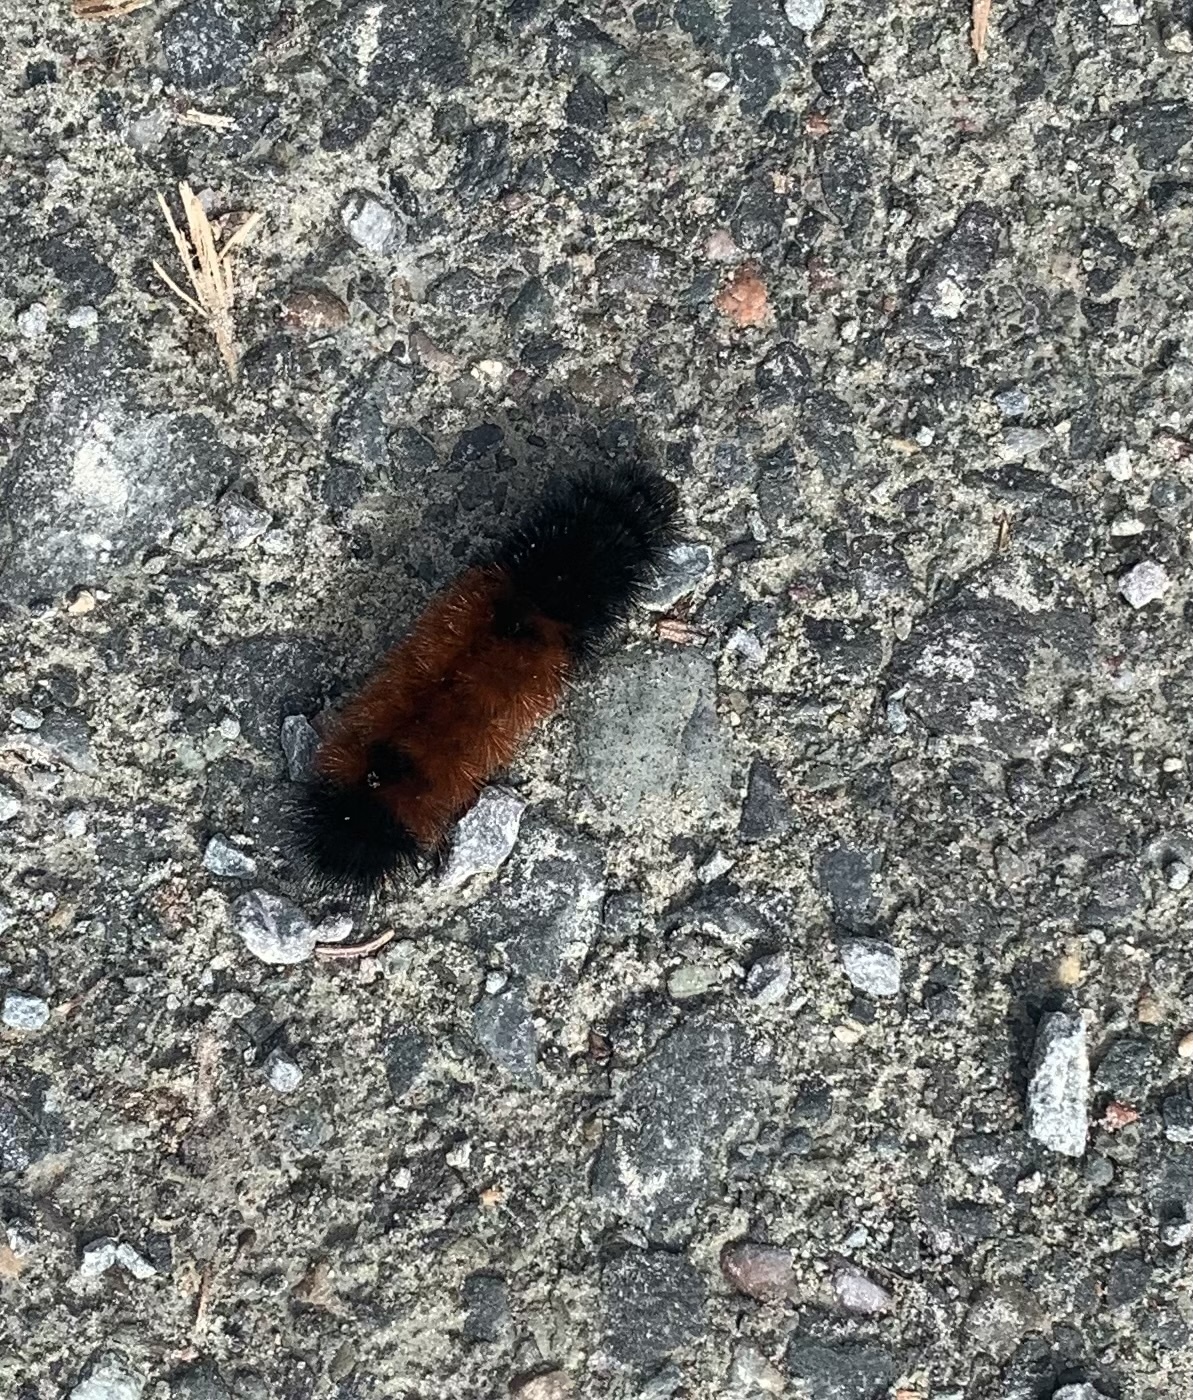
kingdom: Animalia
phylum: Arthropoda
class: Insecta
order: Lepidoptera
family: Erebidae
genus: Pyrrharctia
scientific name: Pyrrharctia isabella
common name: Isabella tiger moth
